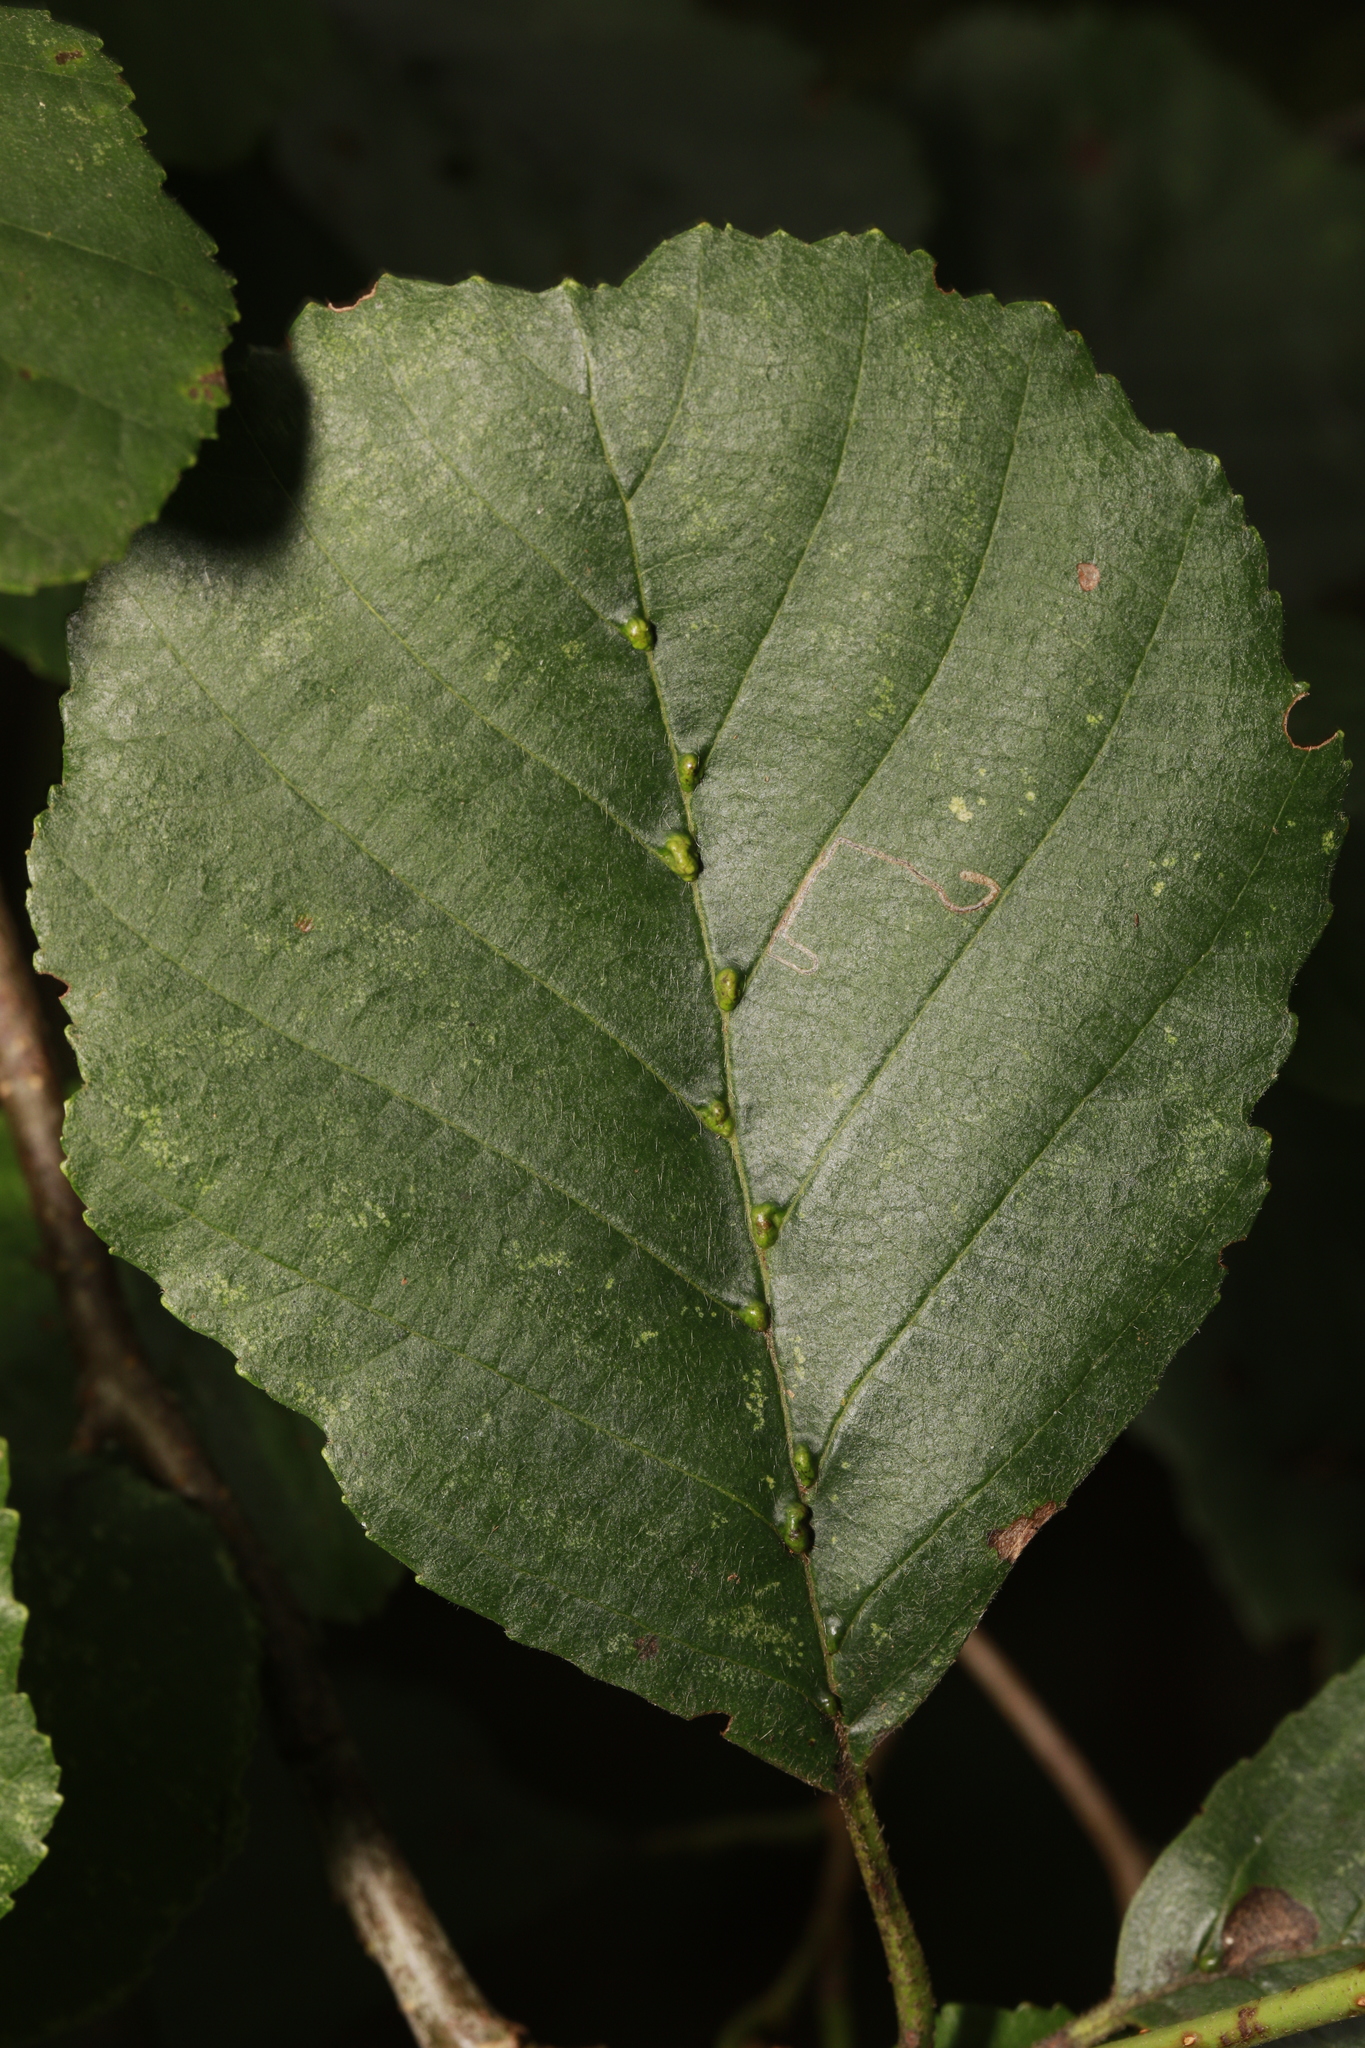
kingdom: Animalia
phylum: Arthropoda
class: Arachnida
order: Trombidiformes
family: Eriophyidae
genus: Eriophyes
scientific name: Eriophyes inangulis
